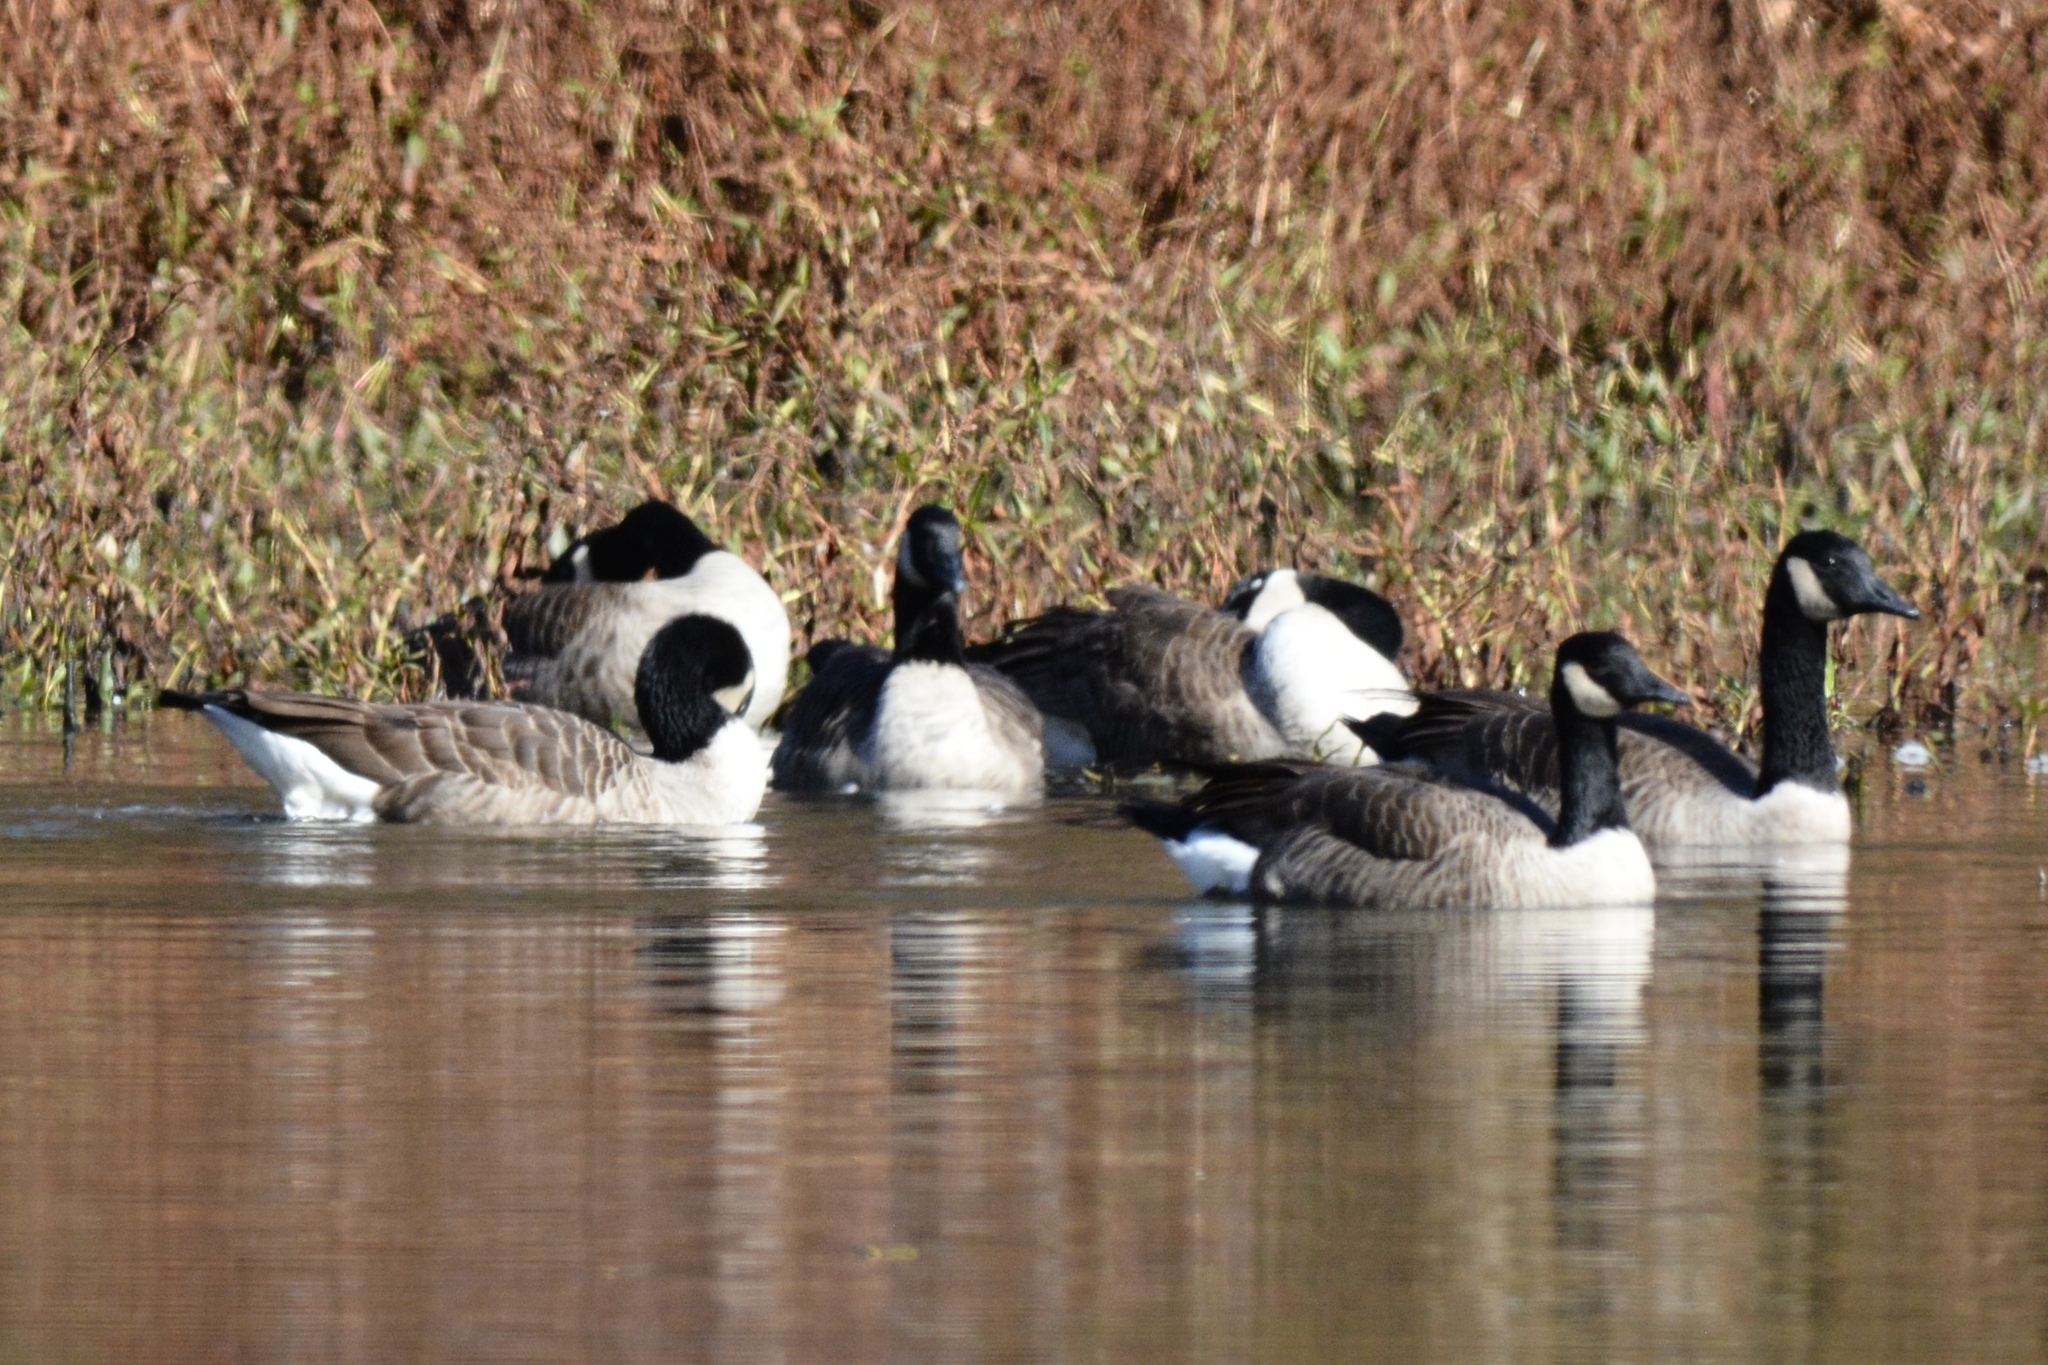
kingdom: Animalia
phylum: Chordata
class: Aves
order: Anseriformes
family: Anatidae
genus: Branta
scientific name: Branta canadensis
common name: Canada goose
